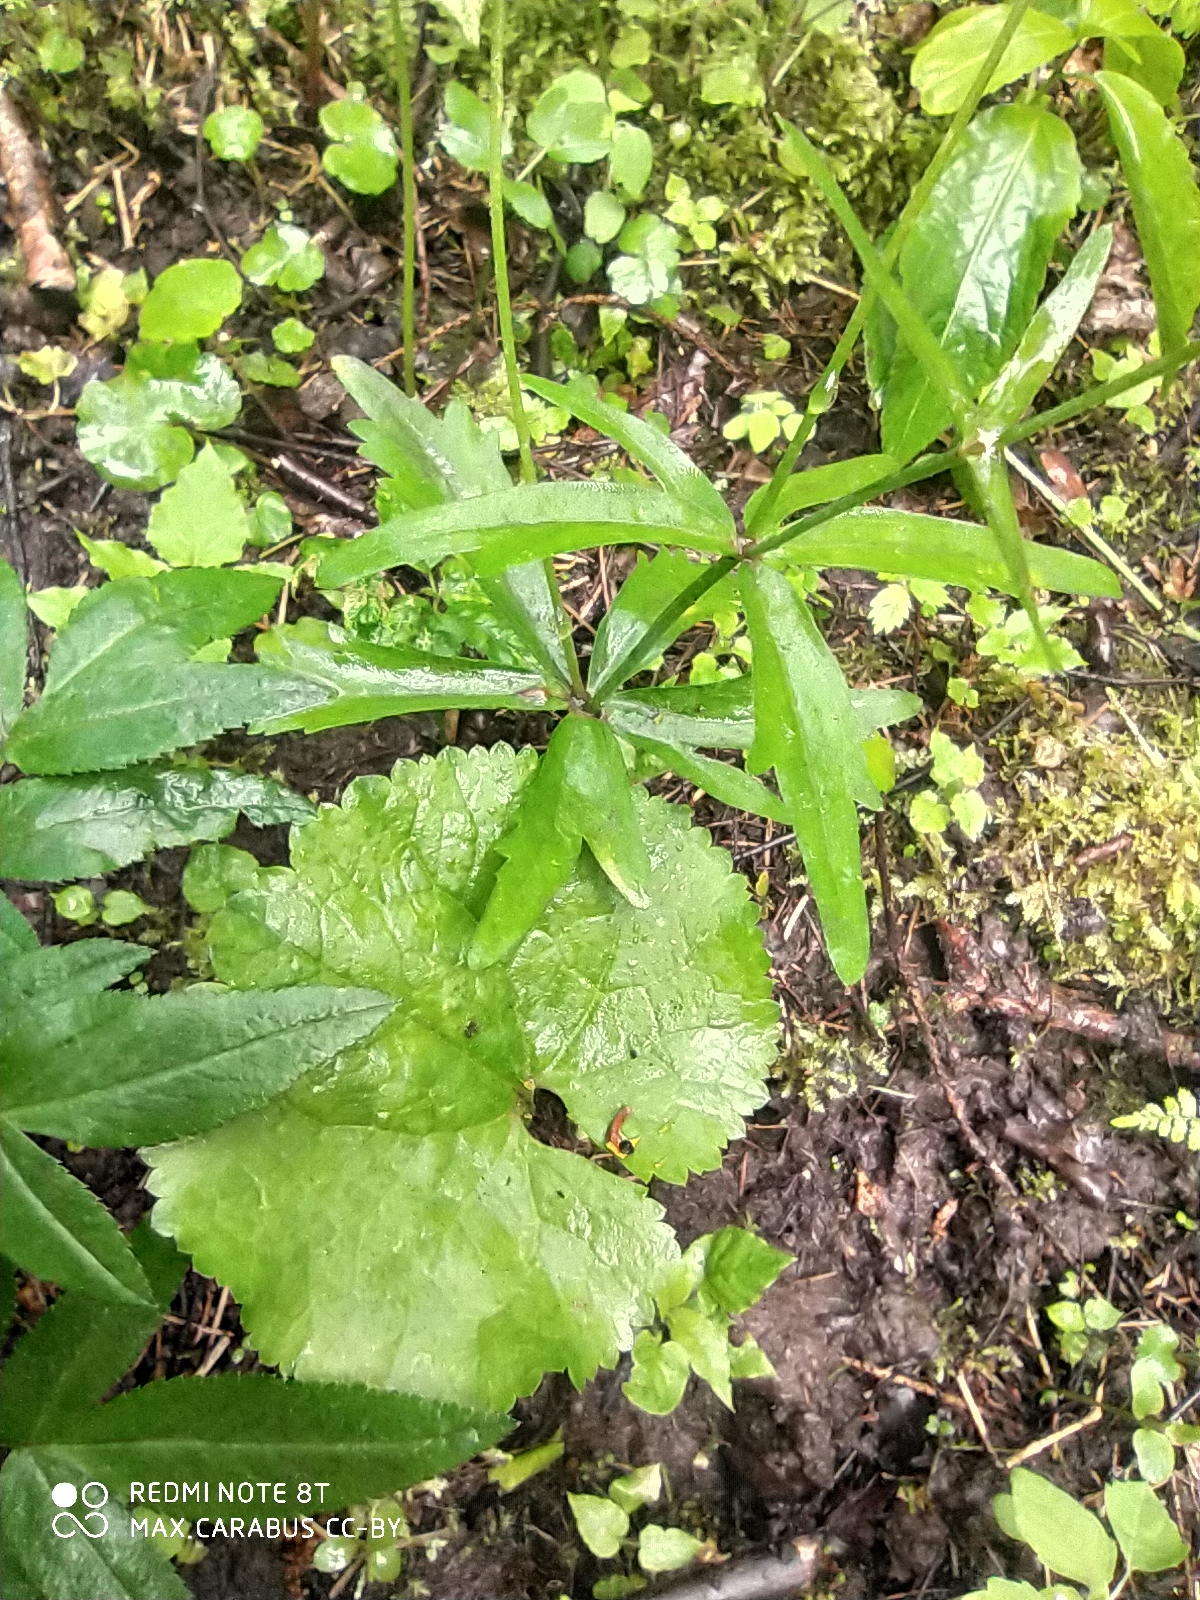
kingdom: Plantae
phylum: Tracheophyta
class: Magnoliopsida
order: Ranunculales
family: Ranunculaceae
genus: Ranunculus
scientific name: Ranunculus cassubicus
